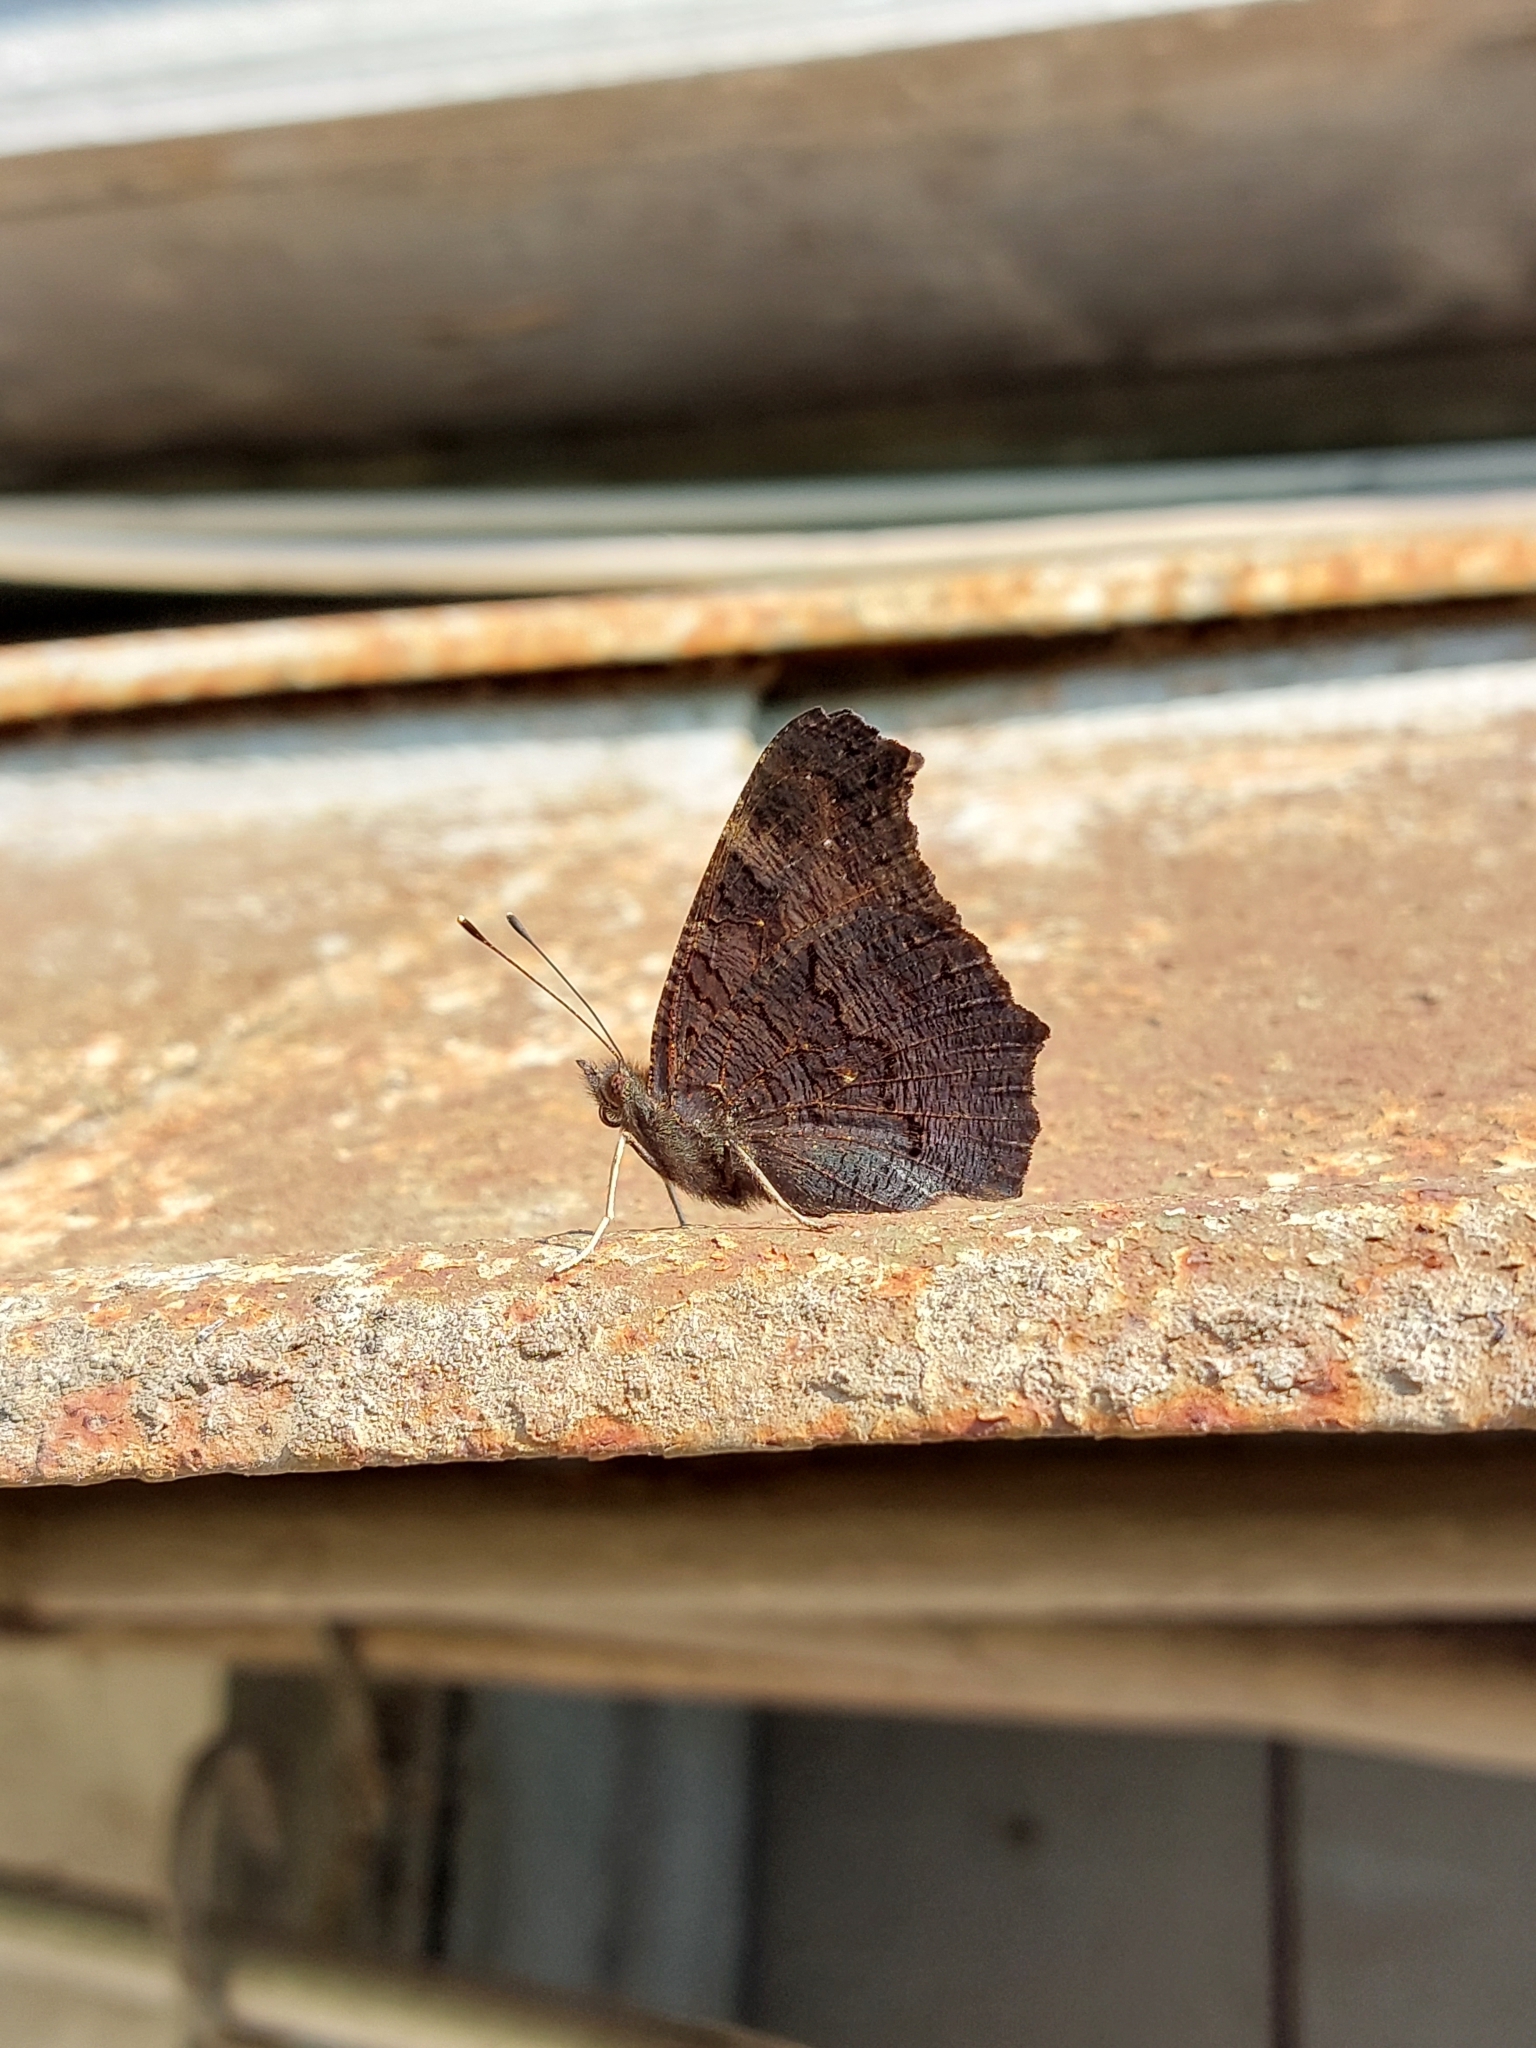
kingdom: Animalia
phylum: Arthropoda
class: Insecta
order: Lepidoptera
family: Nymphalidae
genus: Aglais
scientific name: Aglais io
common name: Peacock
